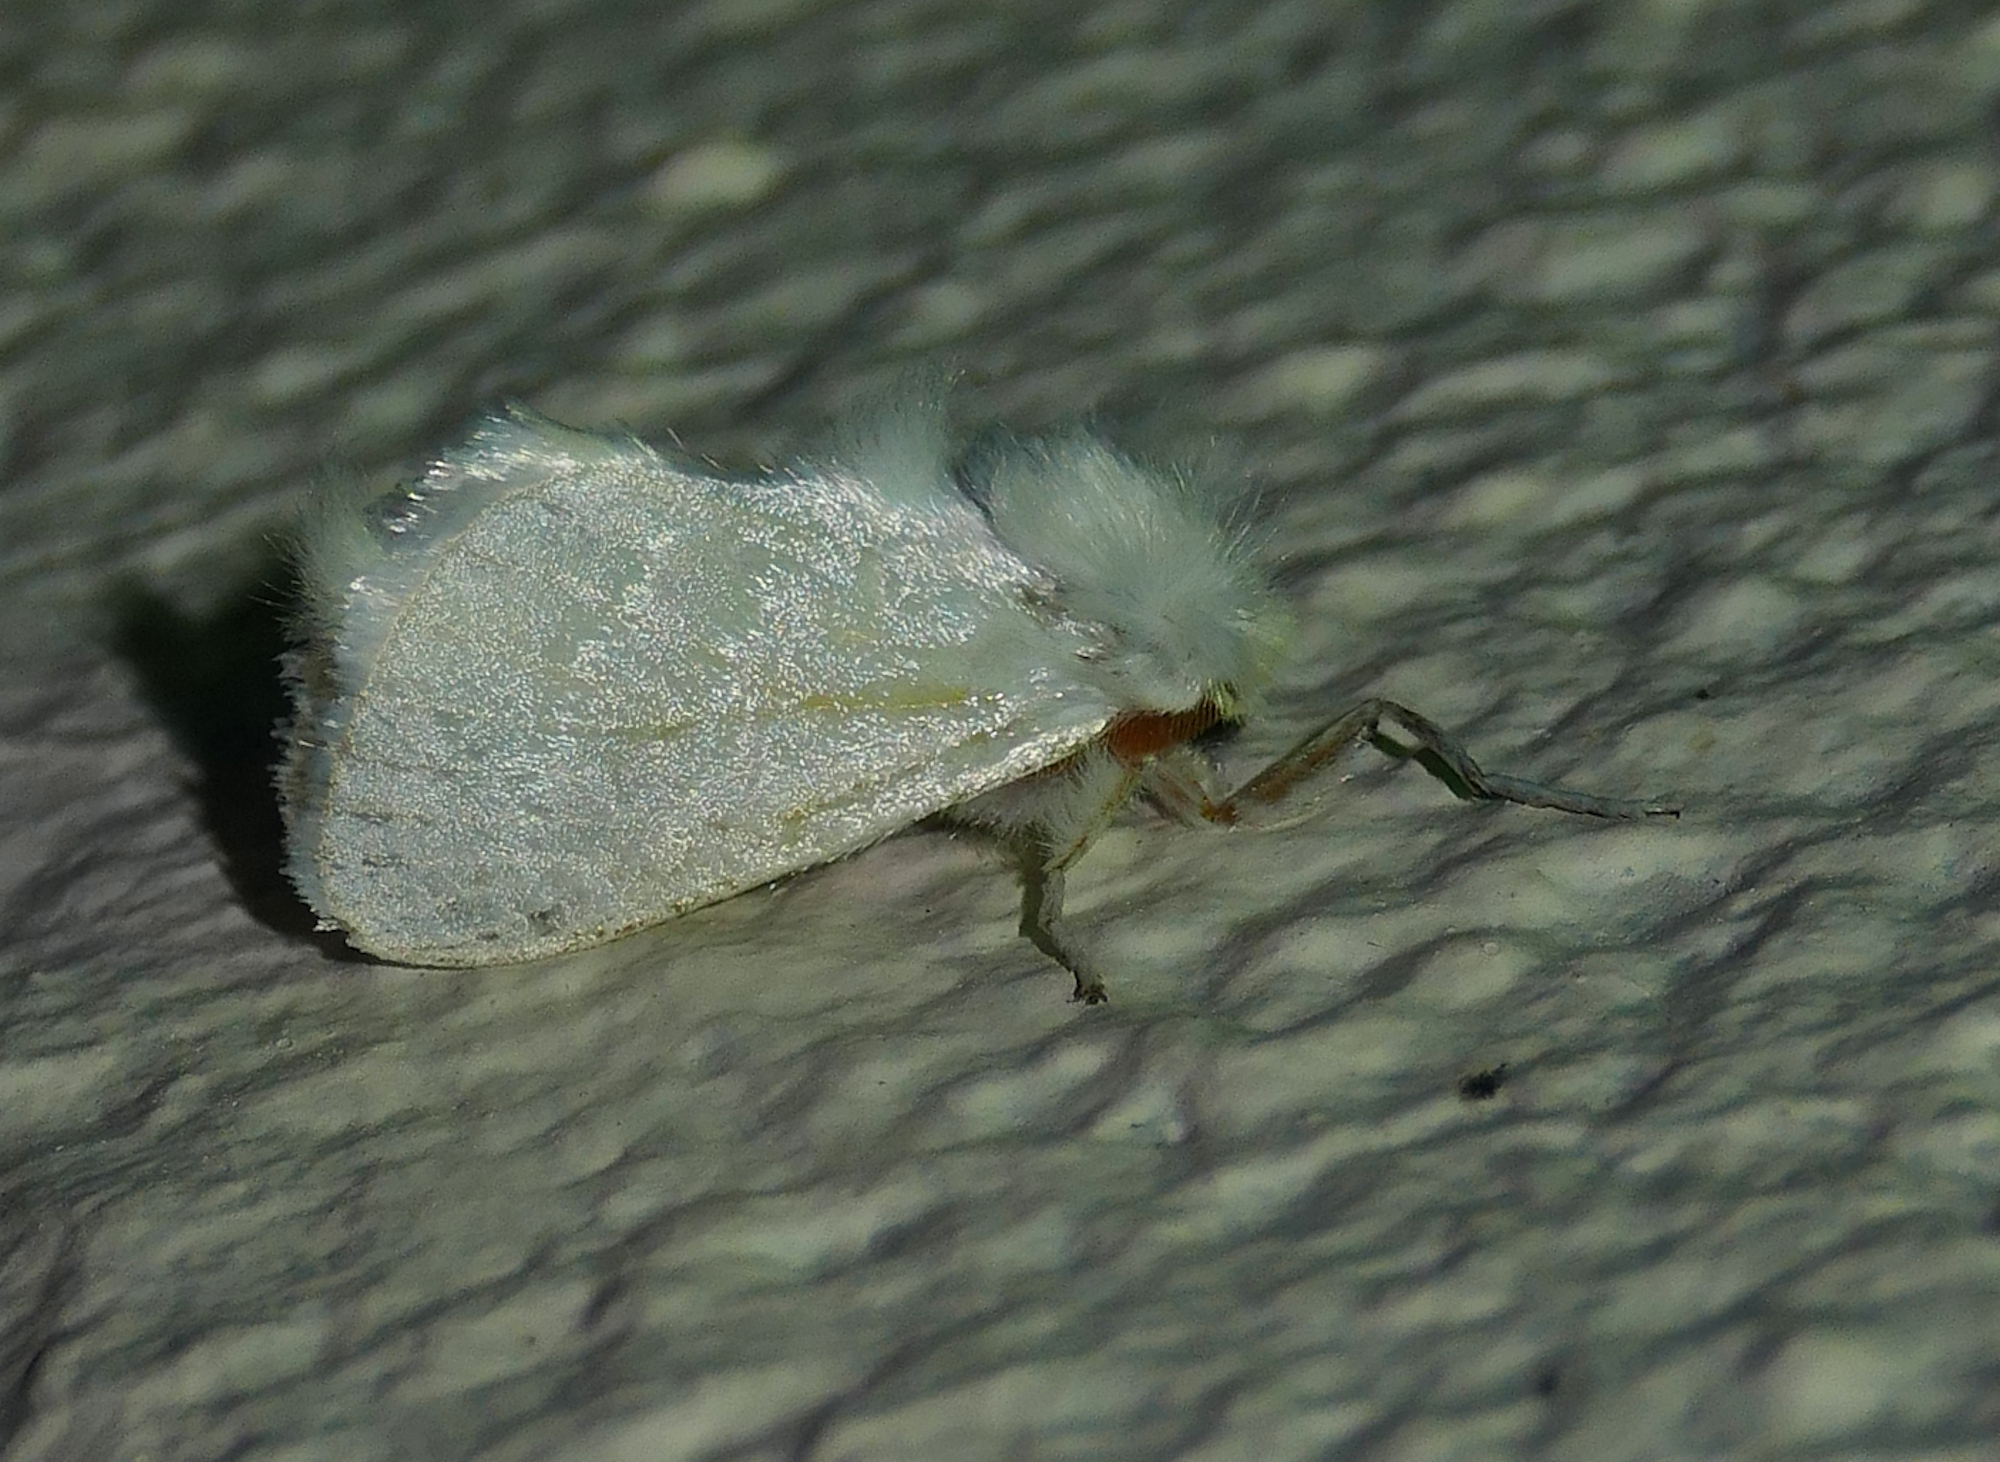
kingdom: Animalia
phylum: Arthropoda
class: Insecta
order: Lepidoptera
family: Megalopygidae
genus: Norape
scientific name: Norape cretata
